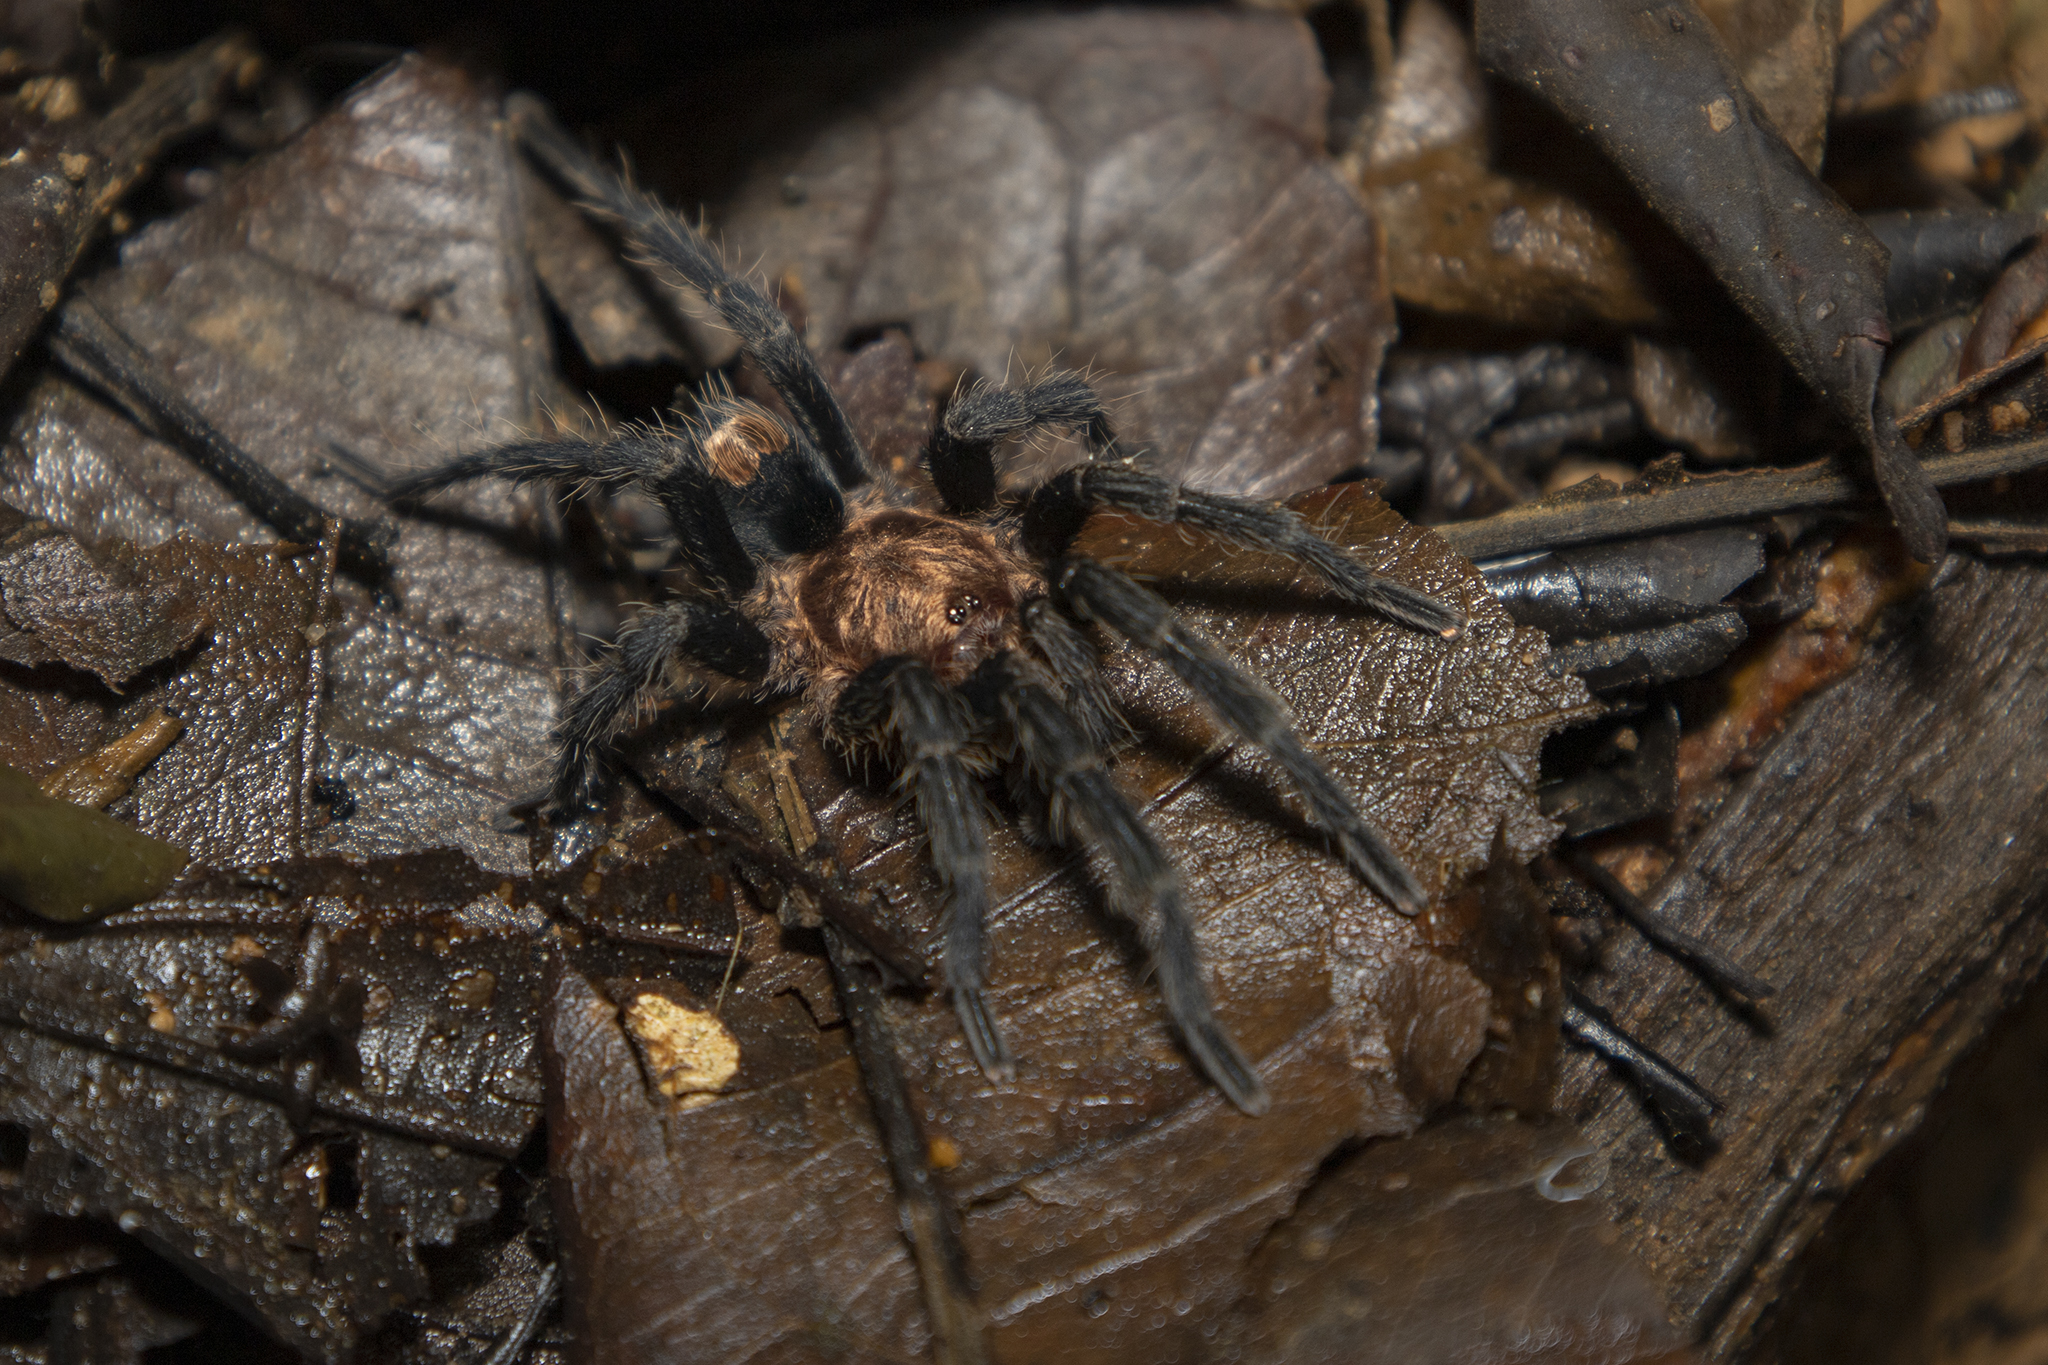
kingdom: Animalia
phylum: Arthropoda
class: Arachnida
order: Araneae
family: Theraphosidae
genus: Cyriocosmus
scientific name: Cyriocosmus itayensis
